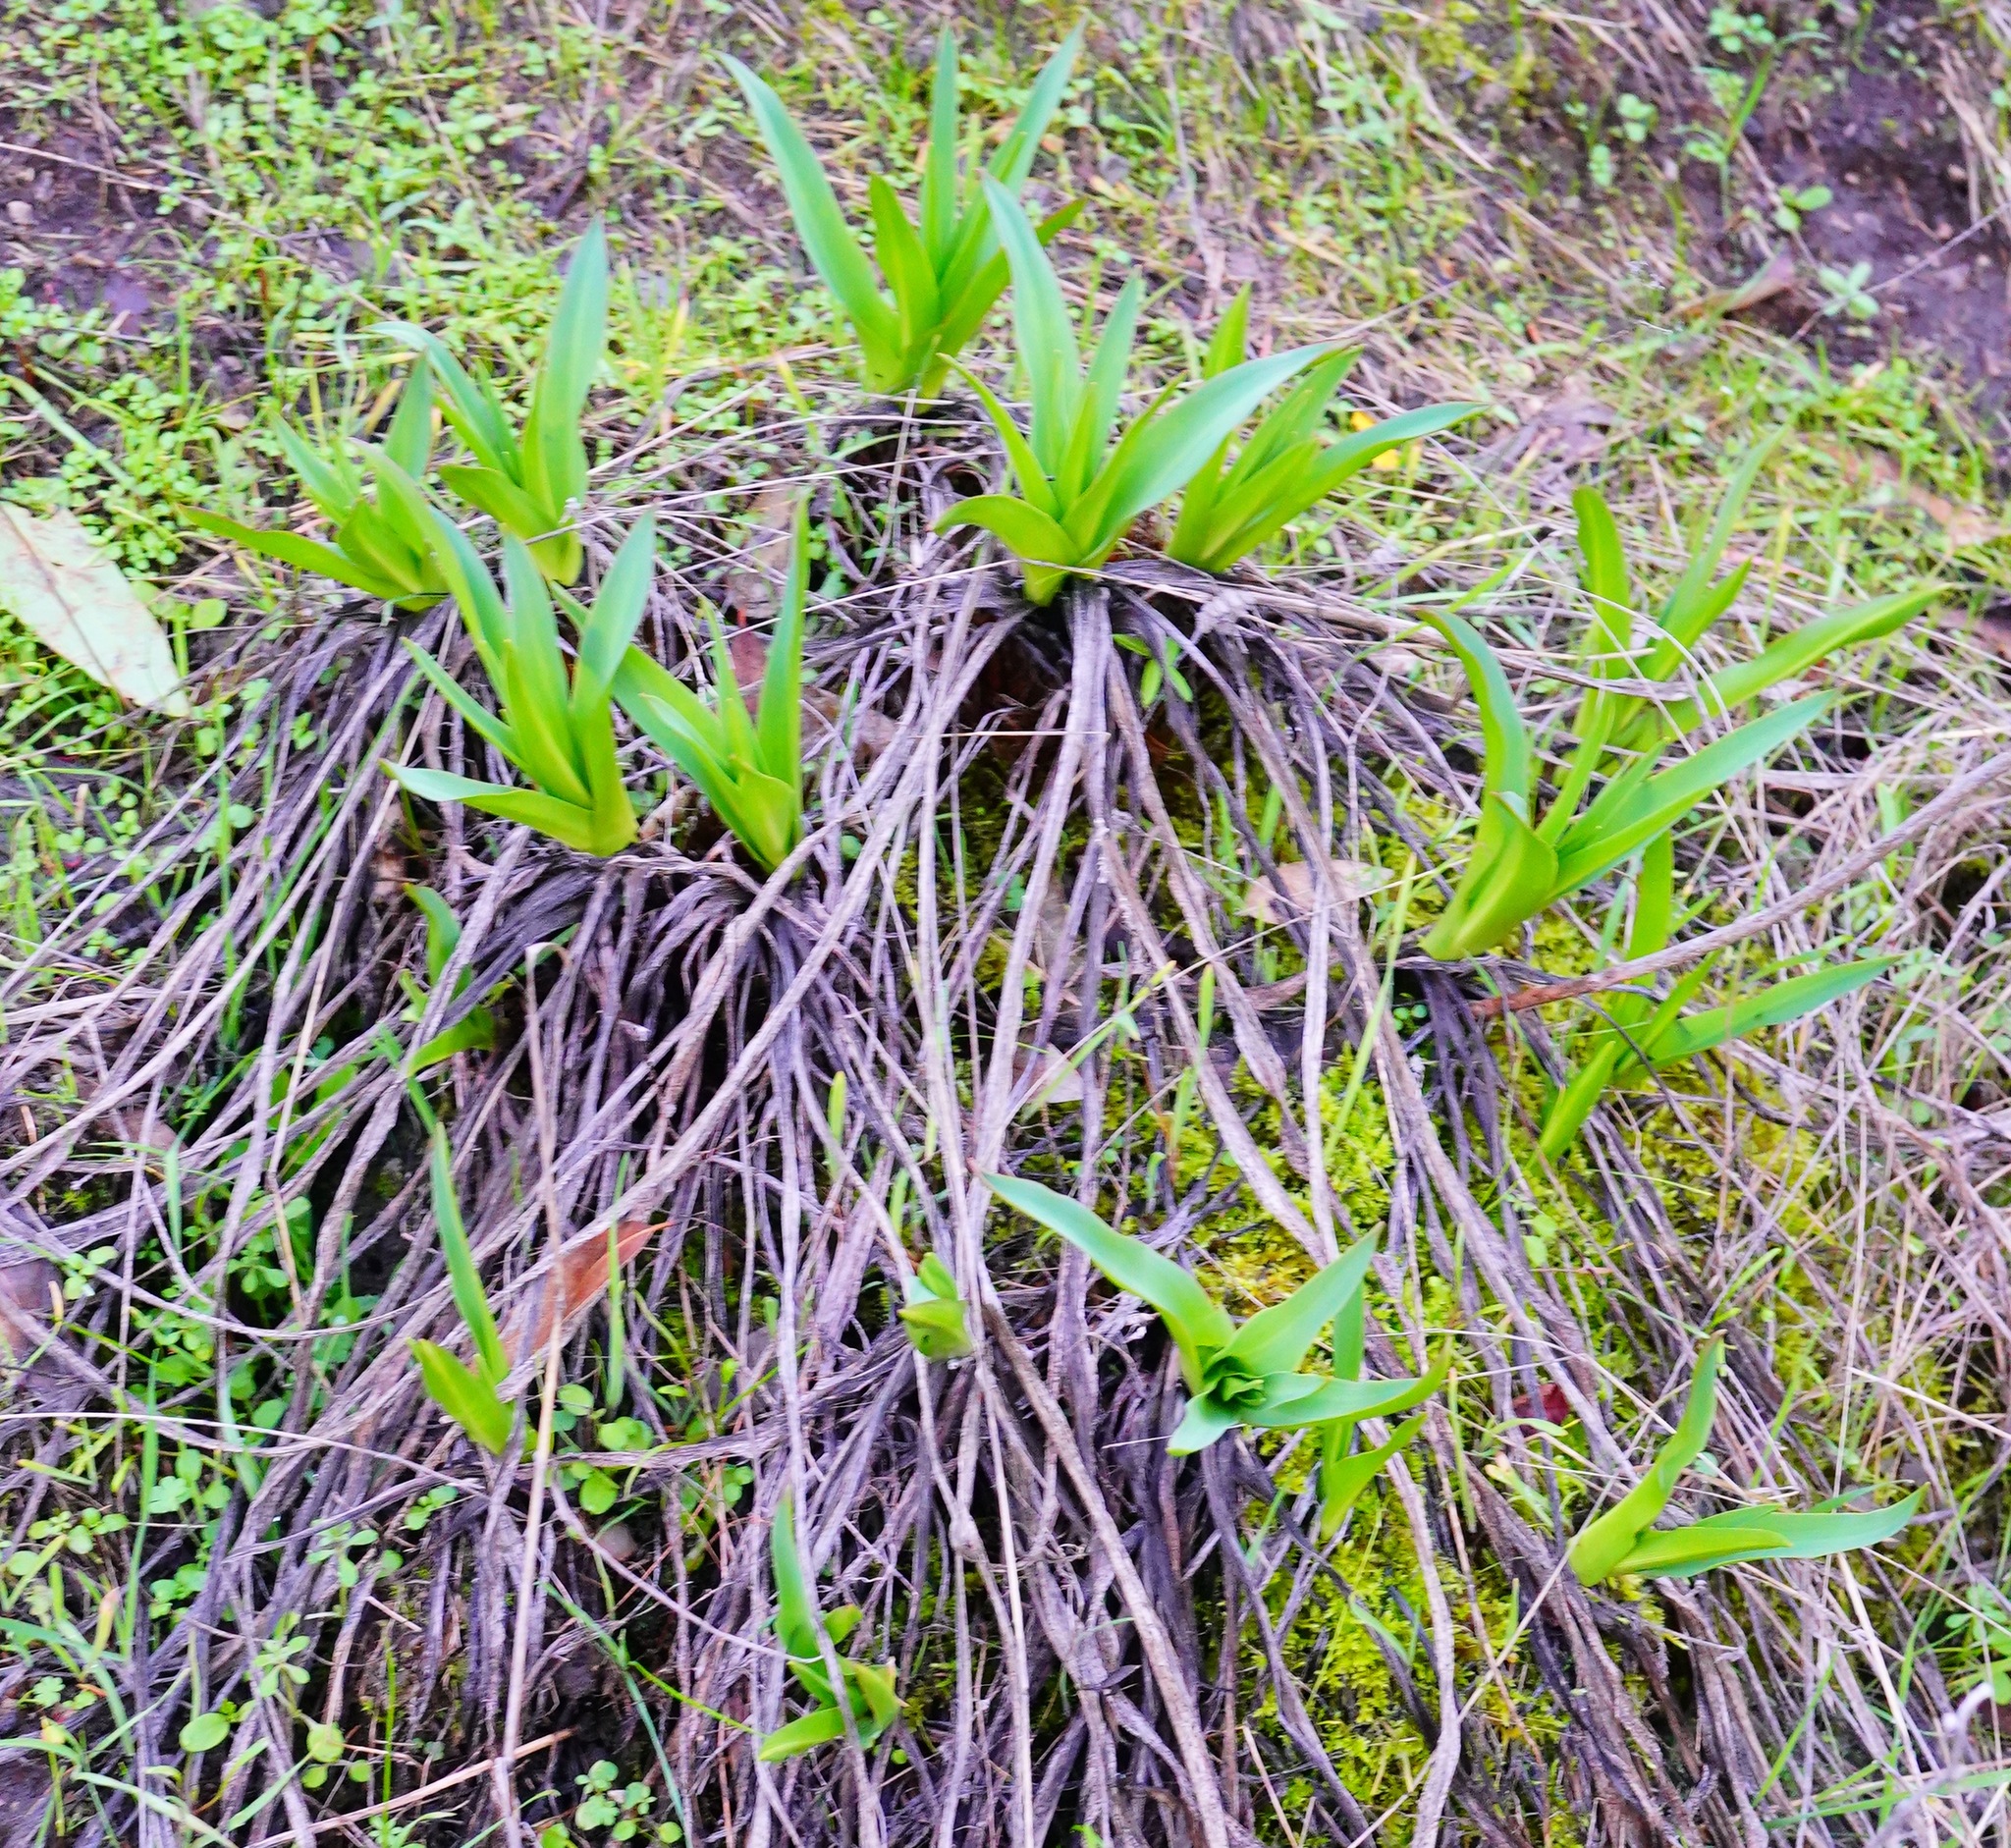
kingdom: Plantae
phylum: Tracheophyta
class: Liliopsida
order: Asparagales
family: Asparagaceae
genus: Chlorogalum
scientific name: Chlorogalum pomeridianum
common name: Amole
